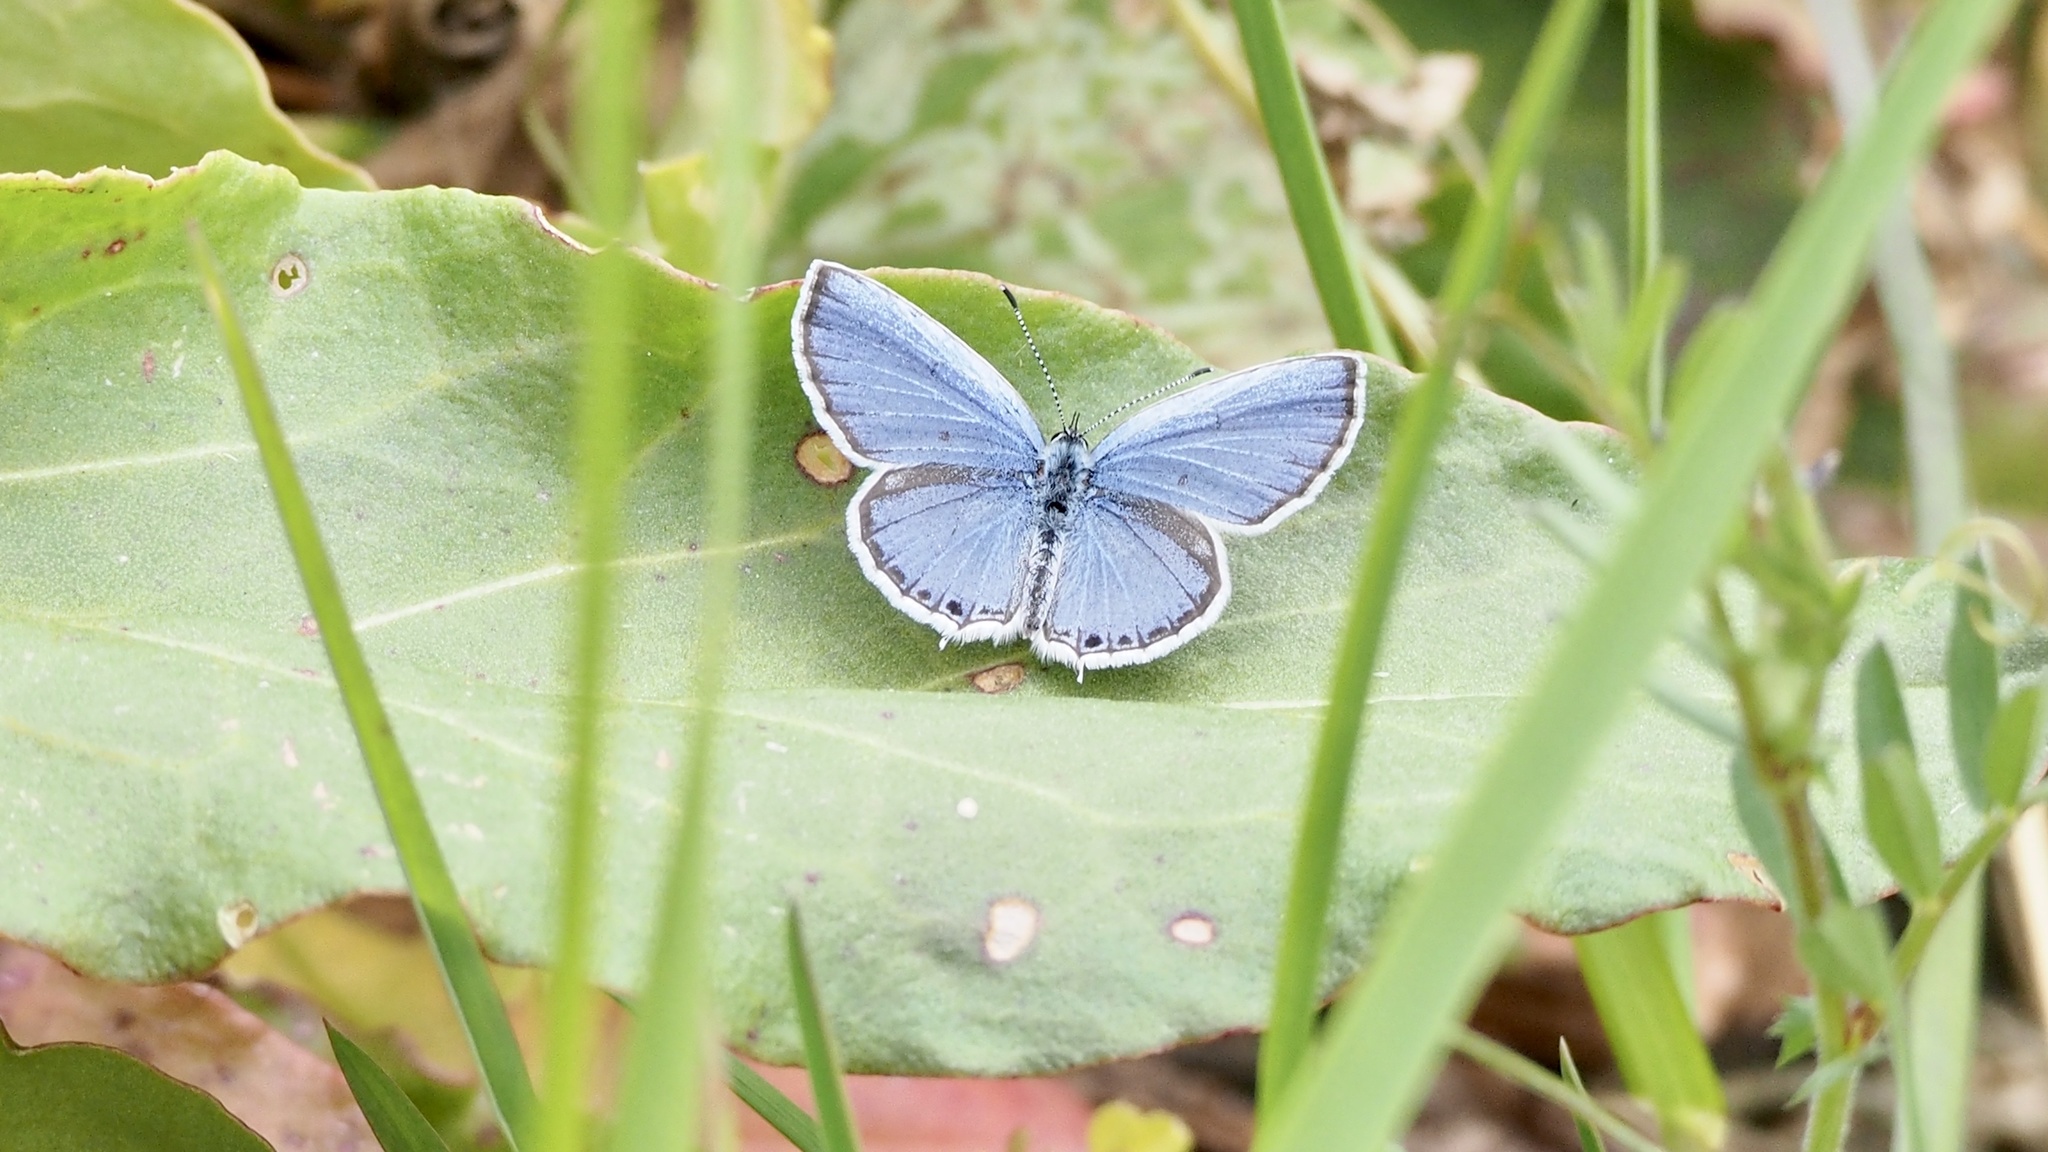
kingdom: Animalia
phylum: Arthropoda
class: Insecta
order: Lepidoptera
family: Lycaenidae
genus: Elkalyce
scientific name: Elkalyce argiades
